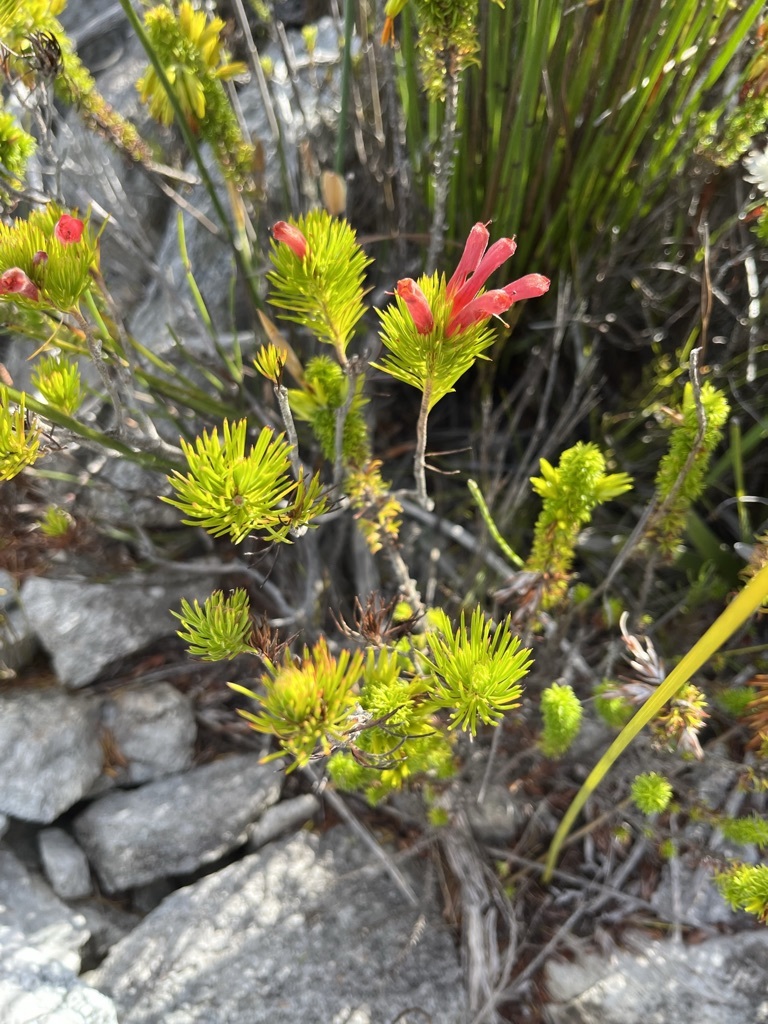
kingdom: Plantae
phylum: Tracheophyta
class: Magnoliopsida
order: Ericales
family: Ericaceae
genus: Erica
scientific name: Erica vestita
